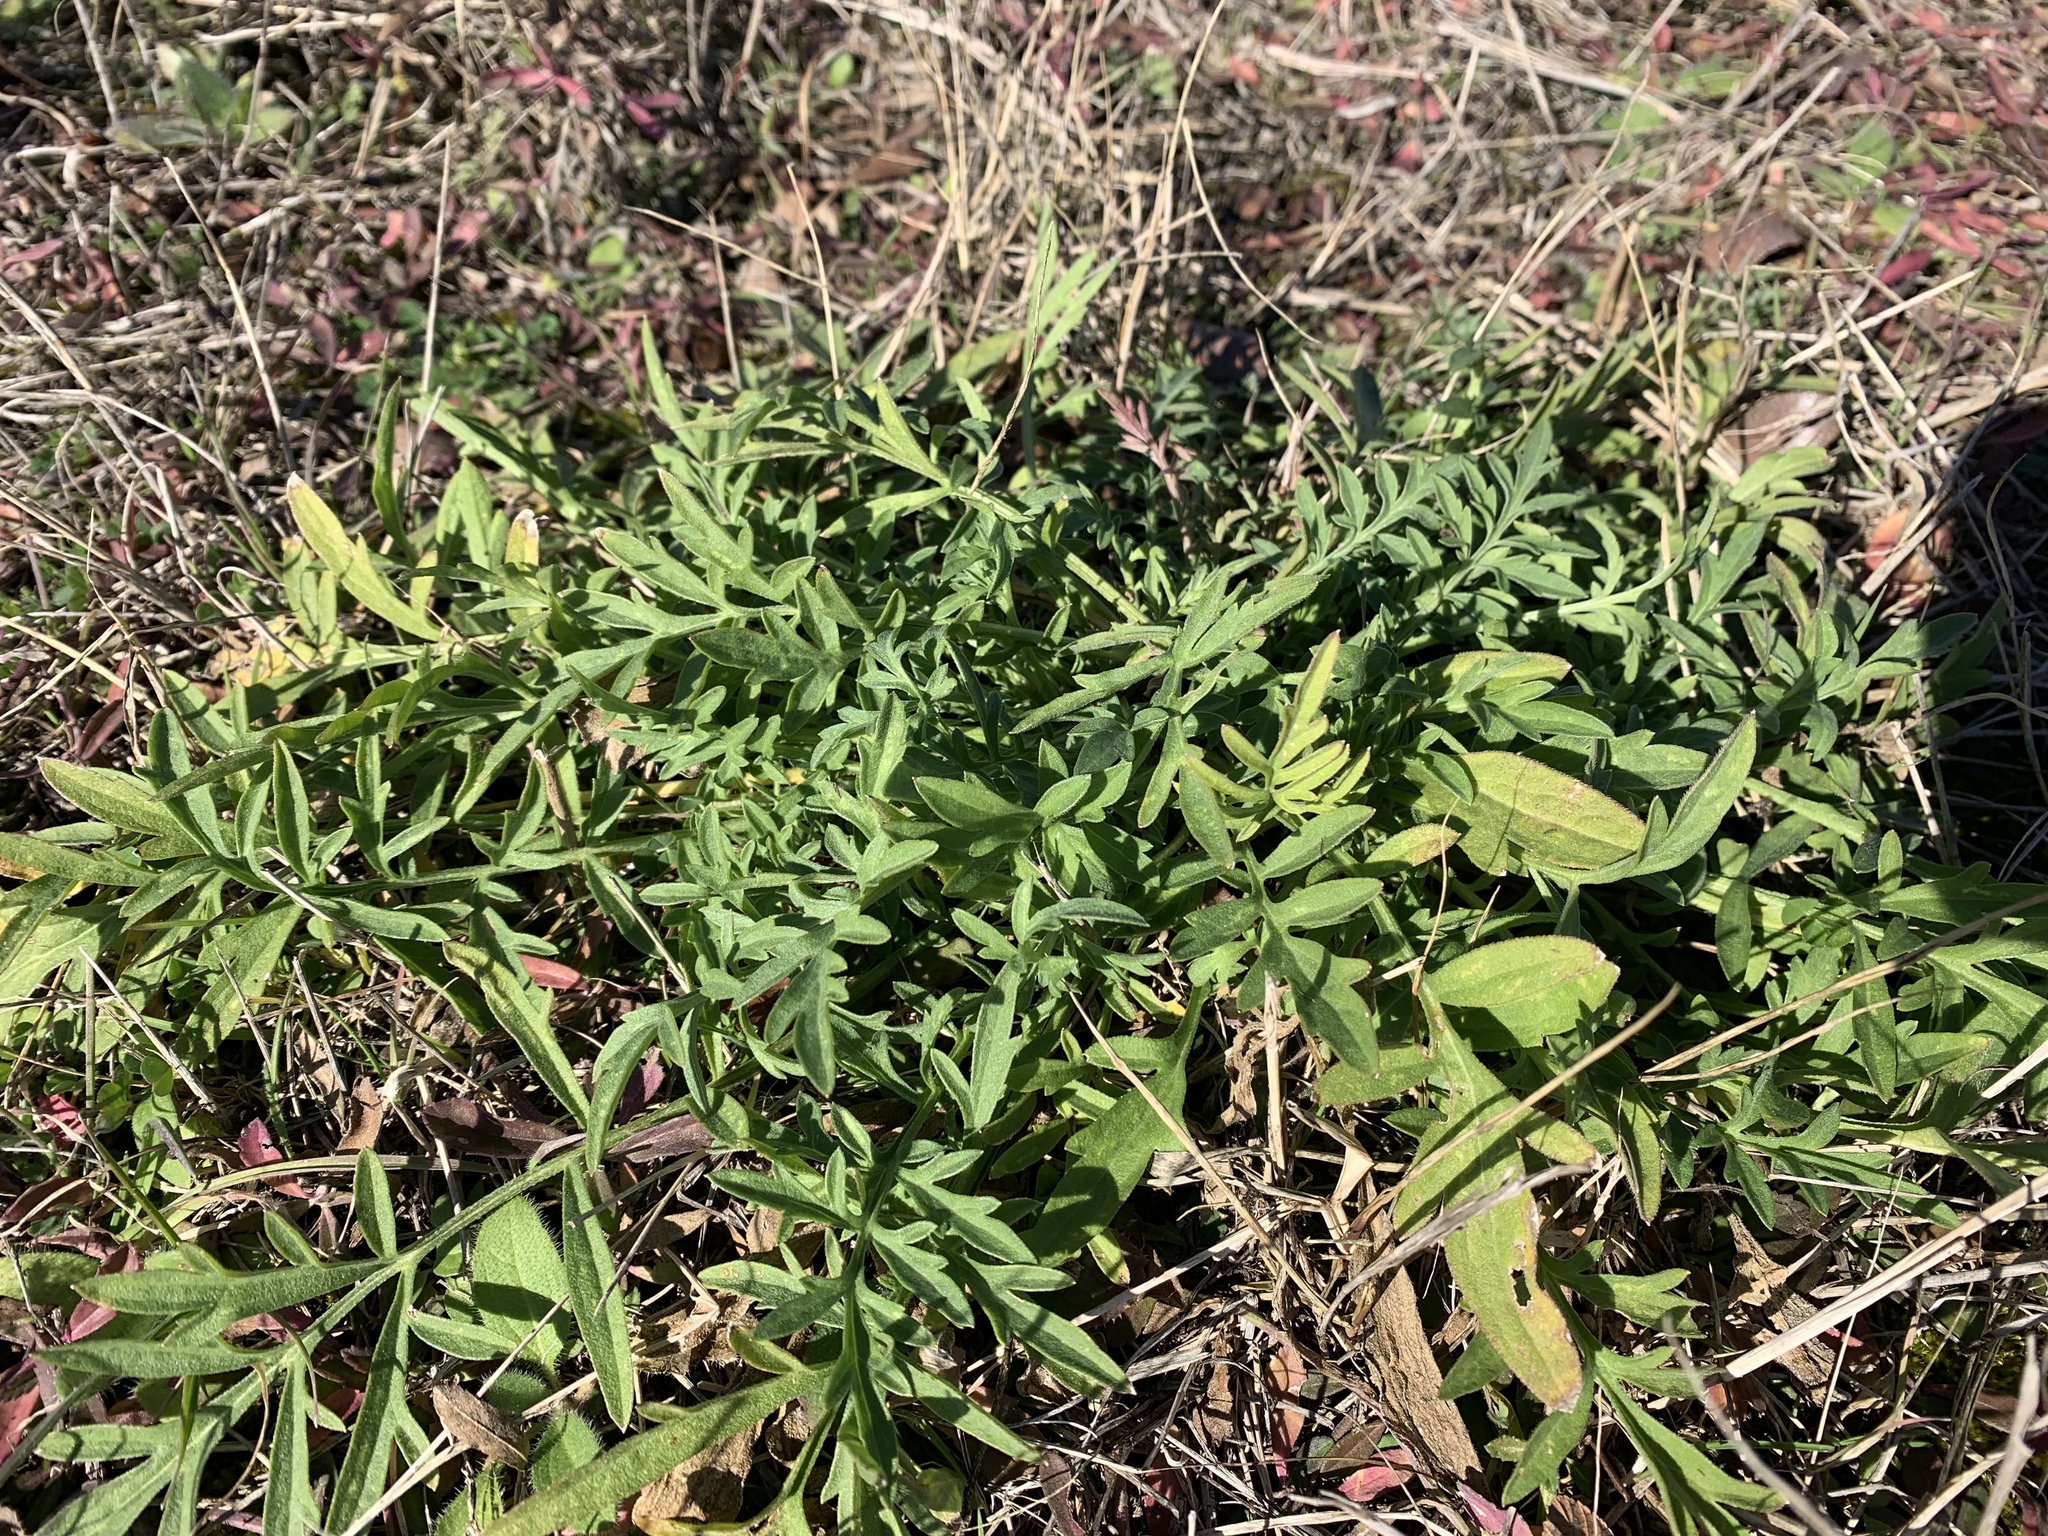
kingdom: Plantae
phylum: Tracheophyta
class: Magnoliopsida
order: Asterales
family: Asteraceae
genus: Ratibida
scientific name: Ratibida columnifera
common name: Prairie coneflower
